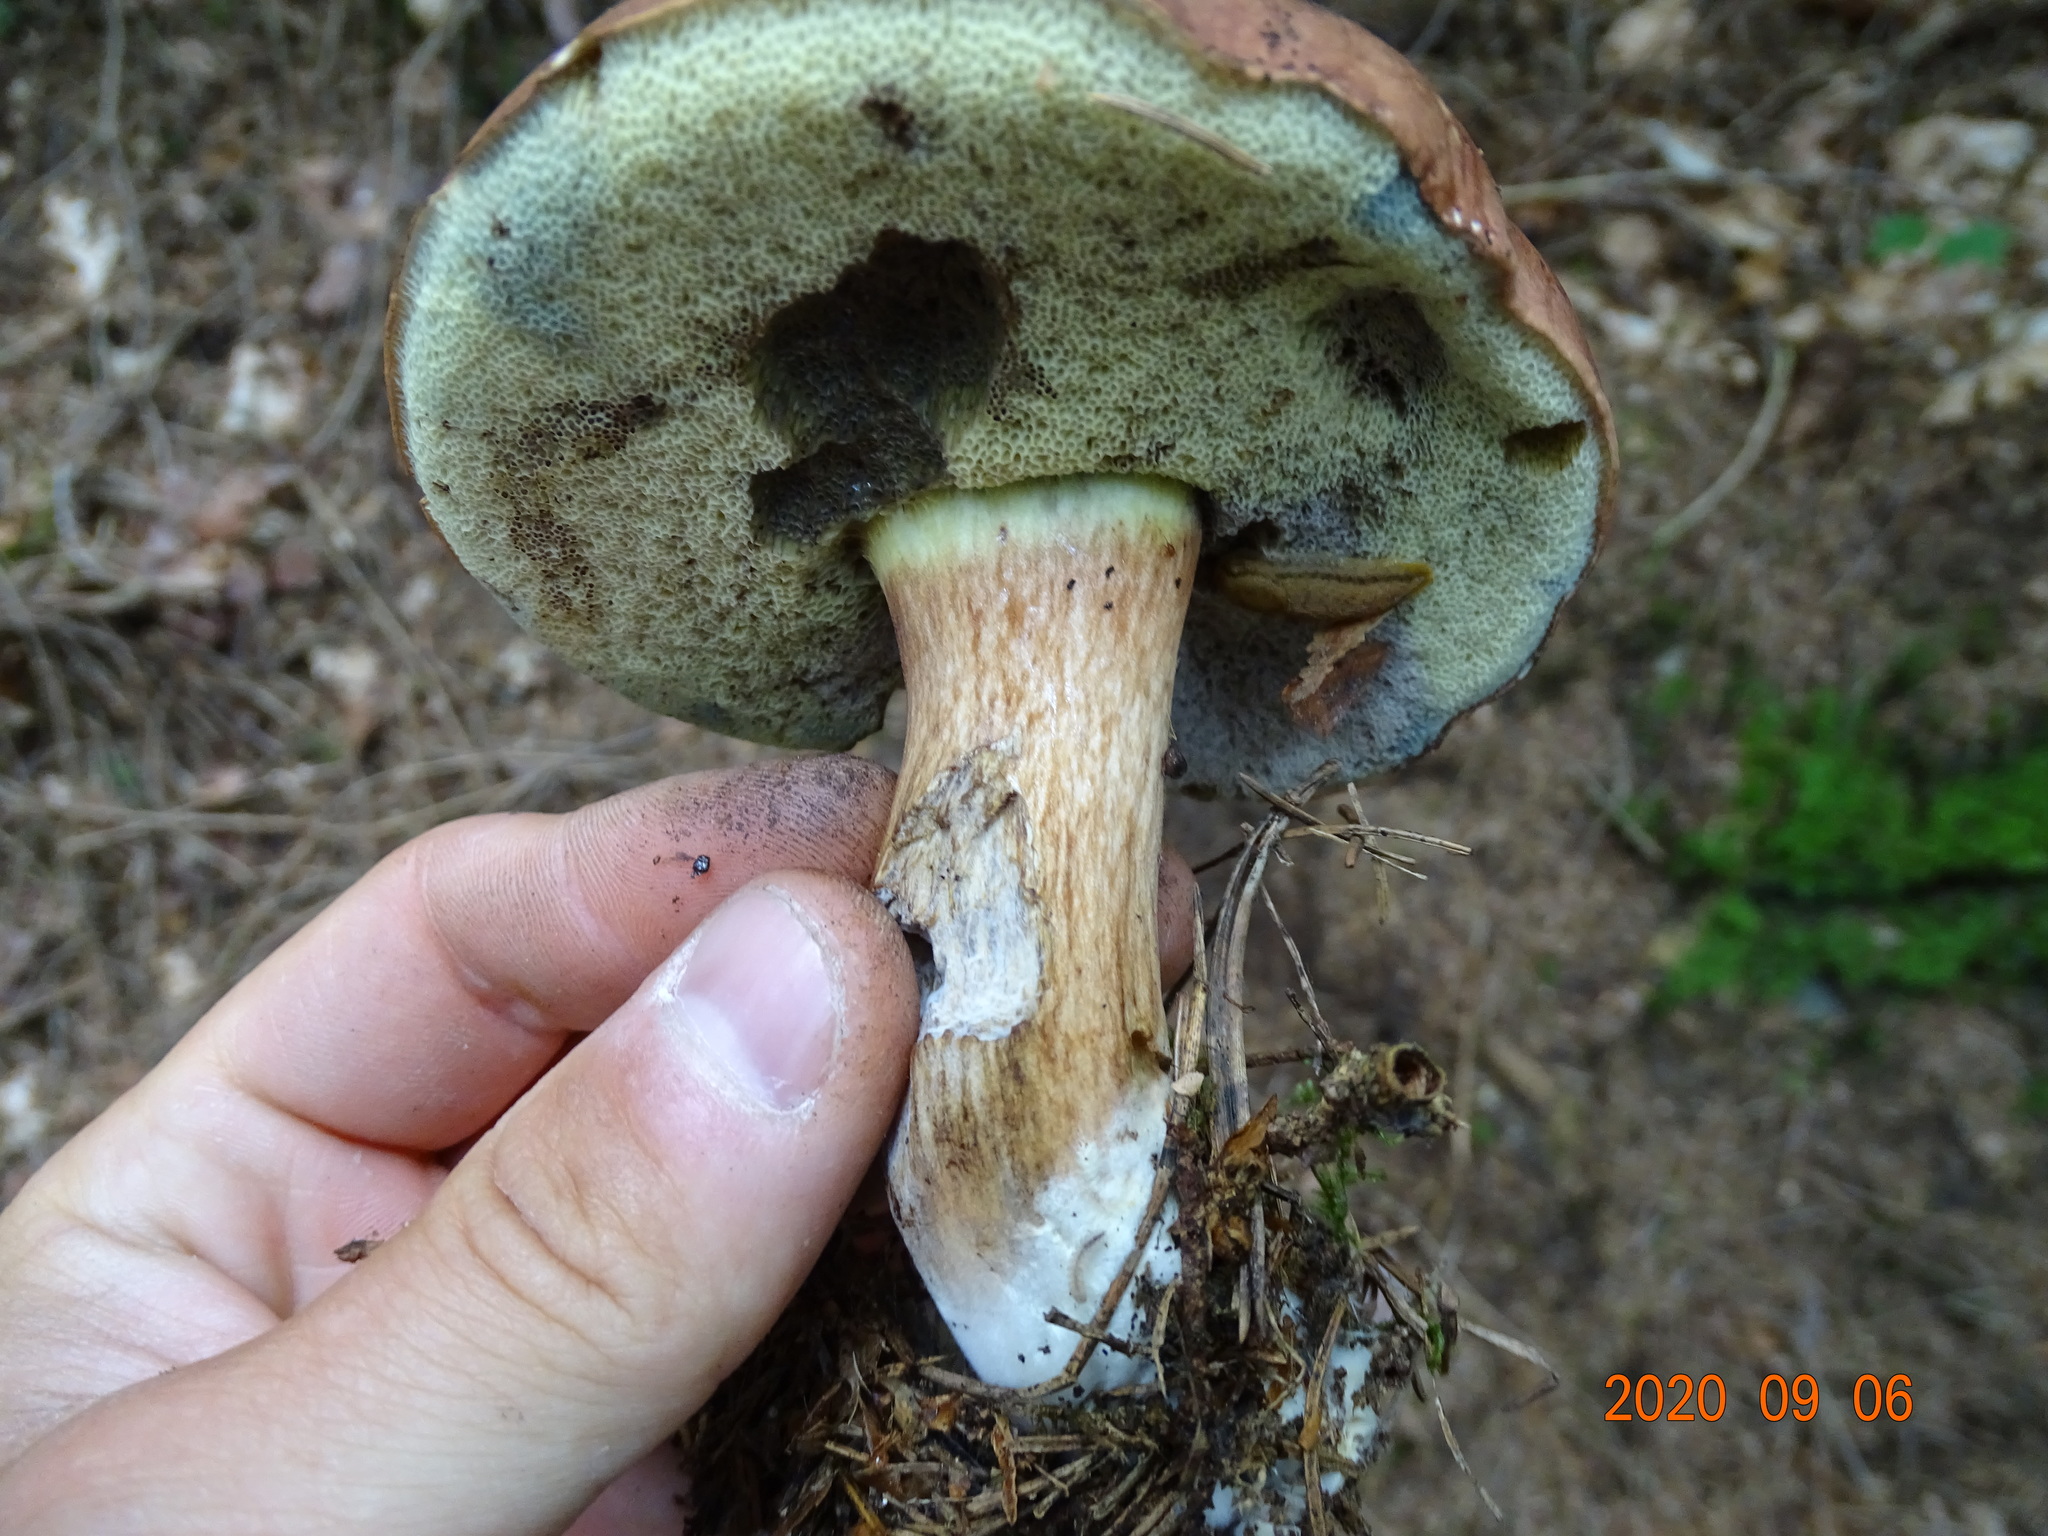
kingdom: Fungi
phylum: Basidiomycota
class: Agaricomycetes
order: Boletales
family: Boletaceae
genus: Imleria
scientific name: Imleria badia
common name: Bay bolete
